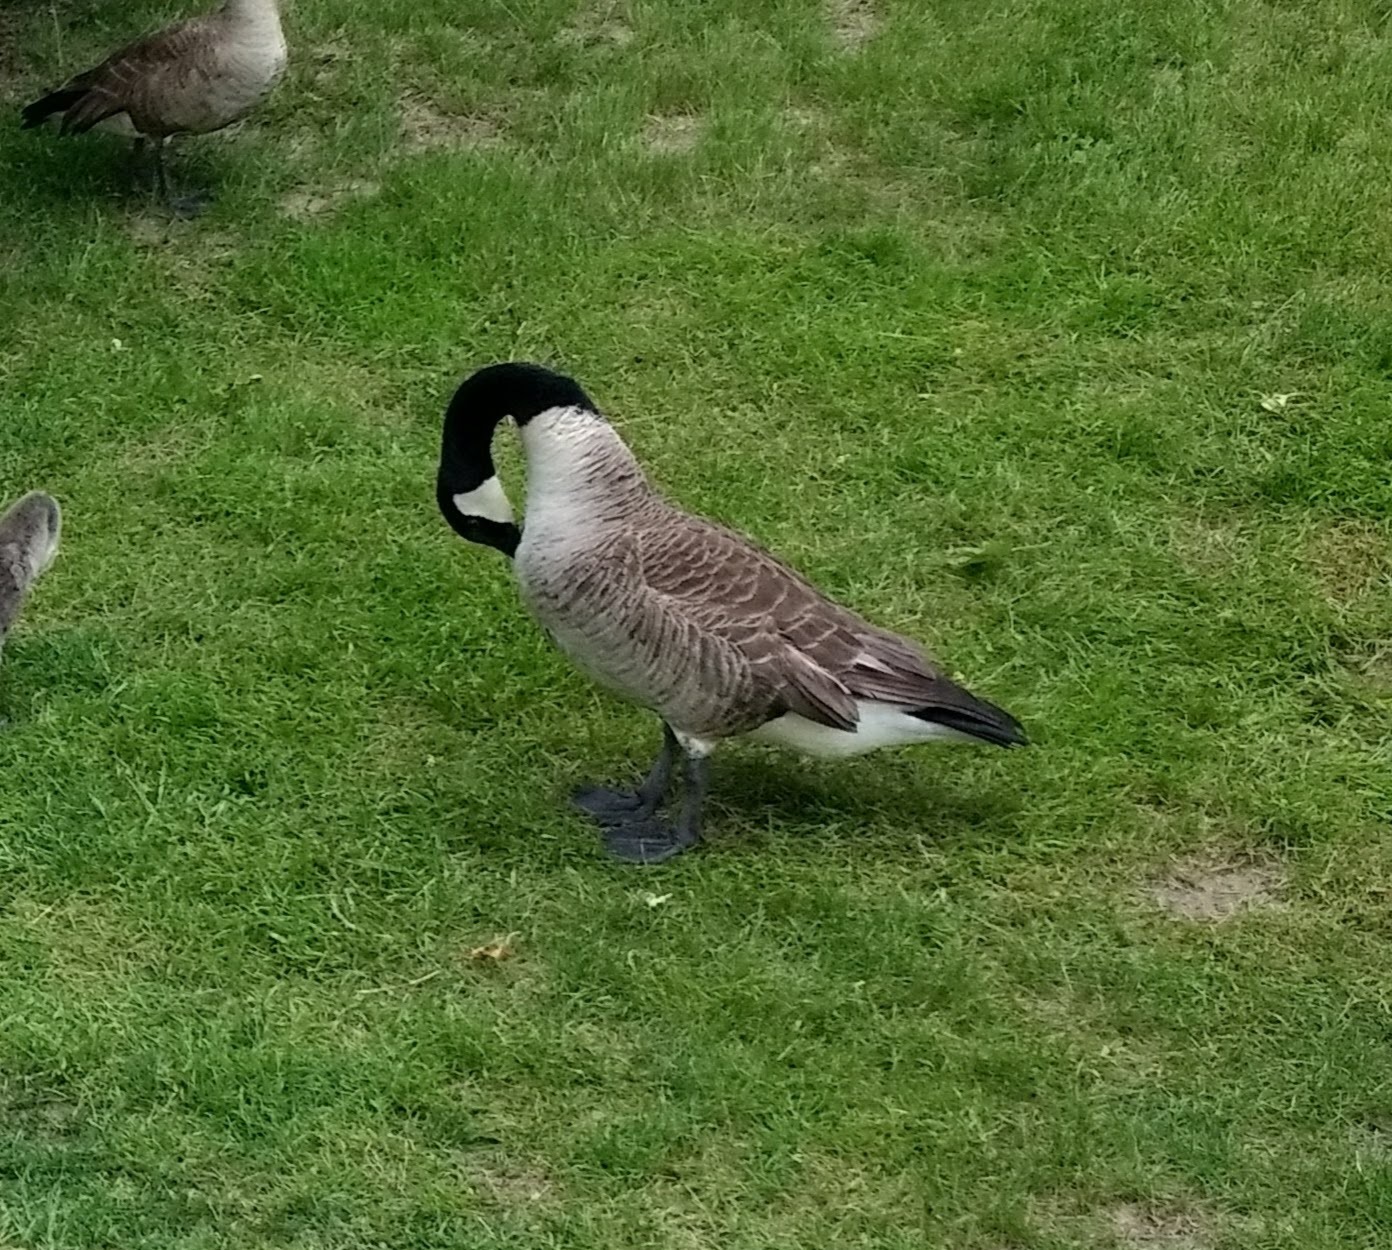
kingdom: Animalia
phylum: Chordata
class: Aves
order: Anseriformes
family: Anatidae
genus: Branta
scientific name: Branta canadensis
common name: Canada goose
